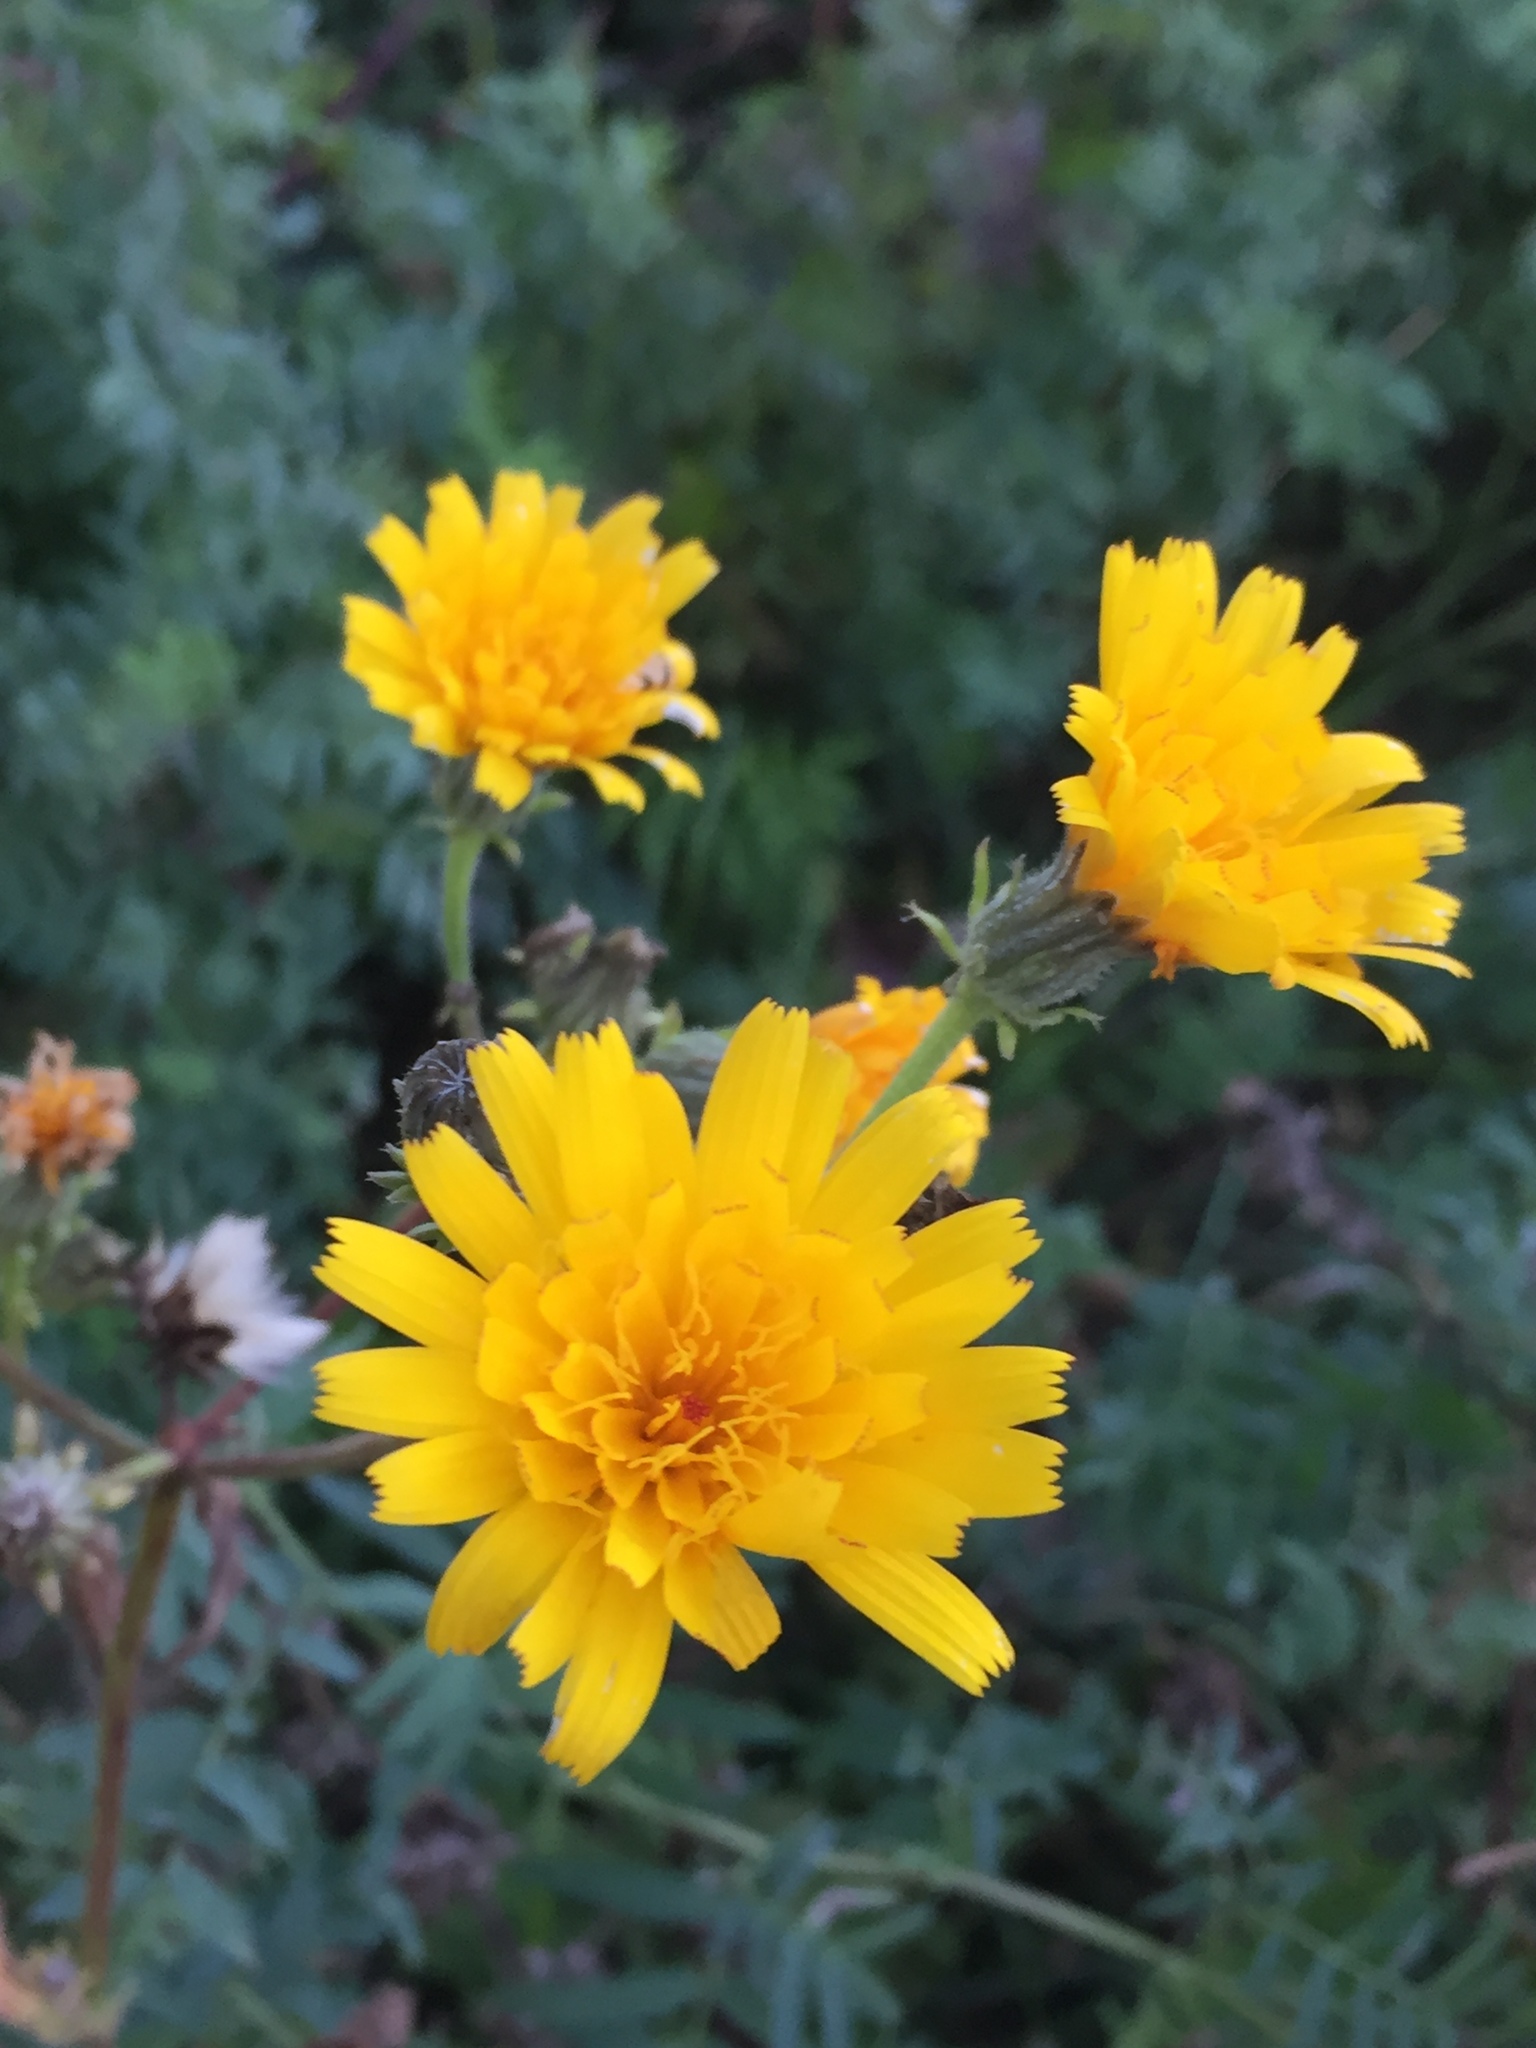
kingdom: Plantae
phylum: Tracheophyta
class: Magnoliopsida
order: Asterales
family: Asteraceae
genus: Picris
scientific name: Picris hieracioides
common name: Hawkweed oxtongue
